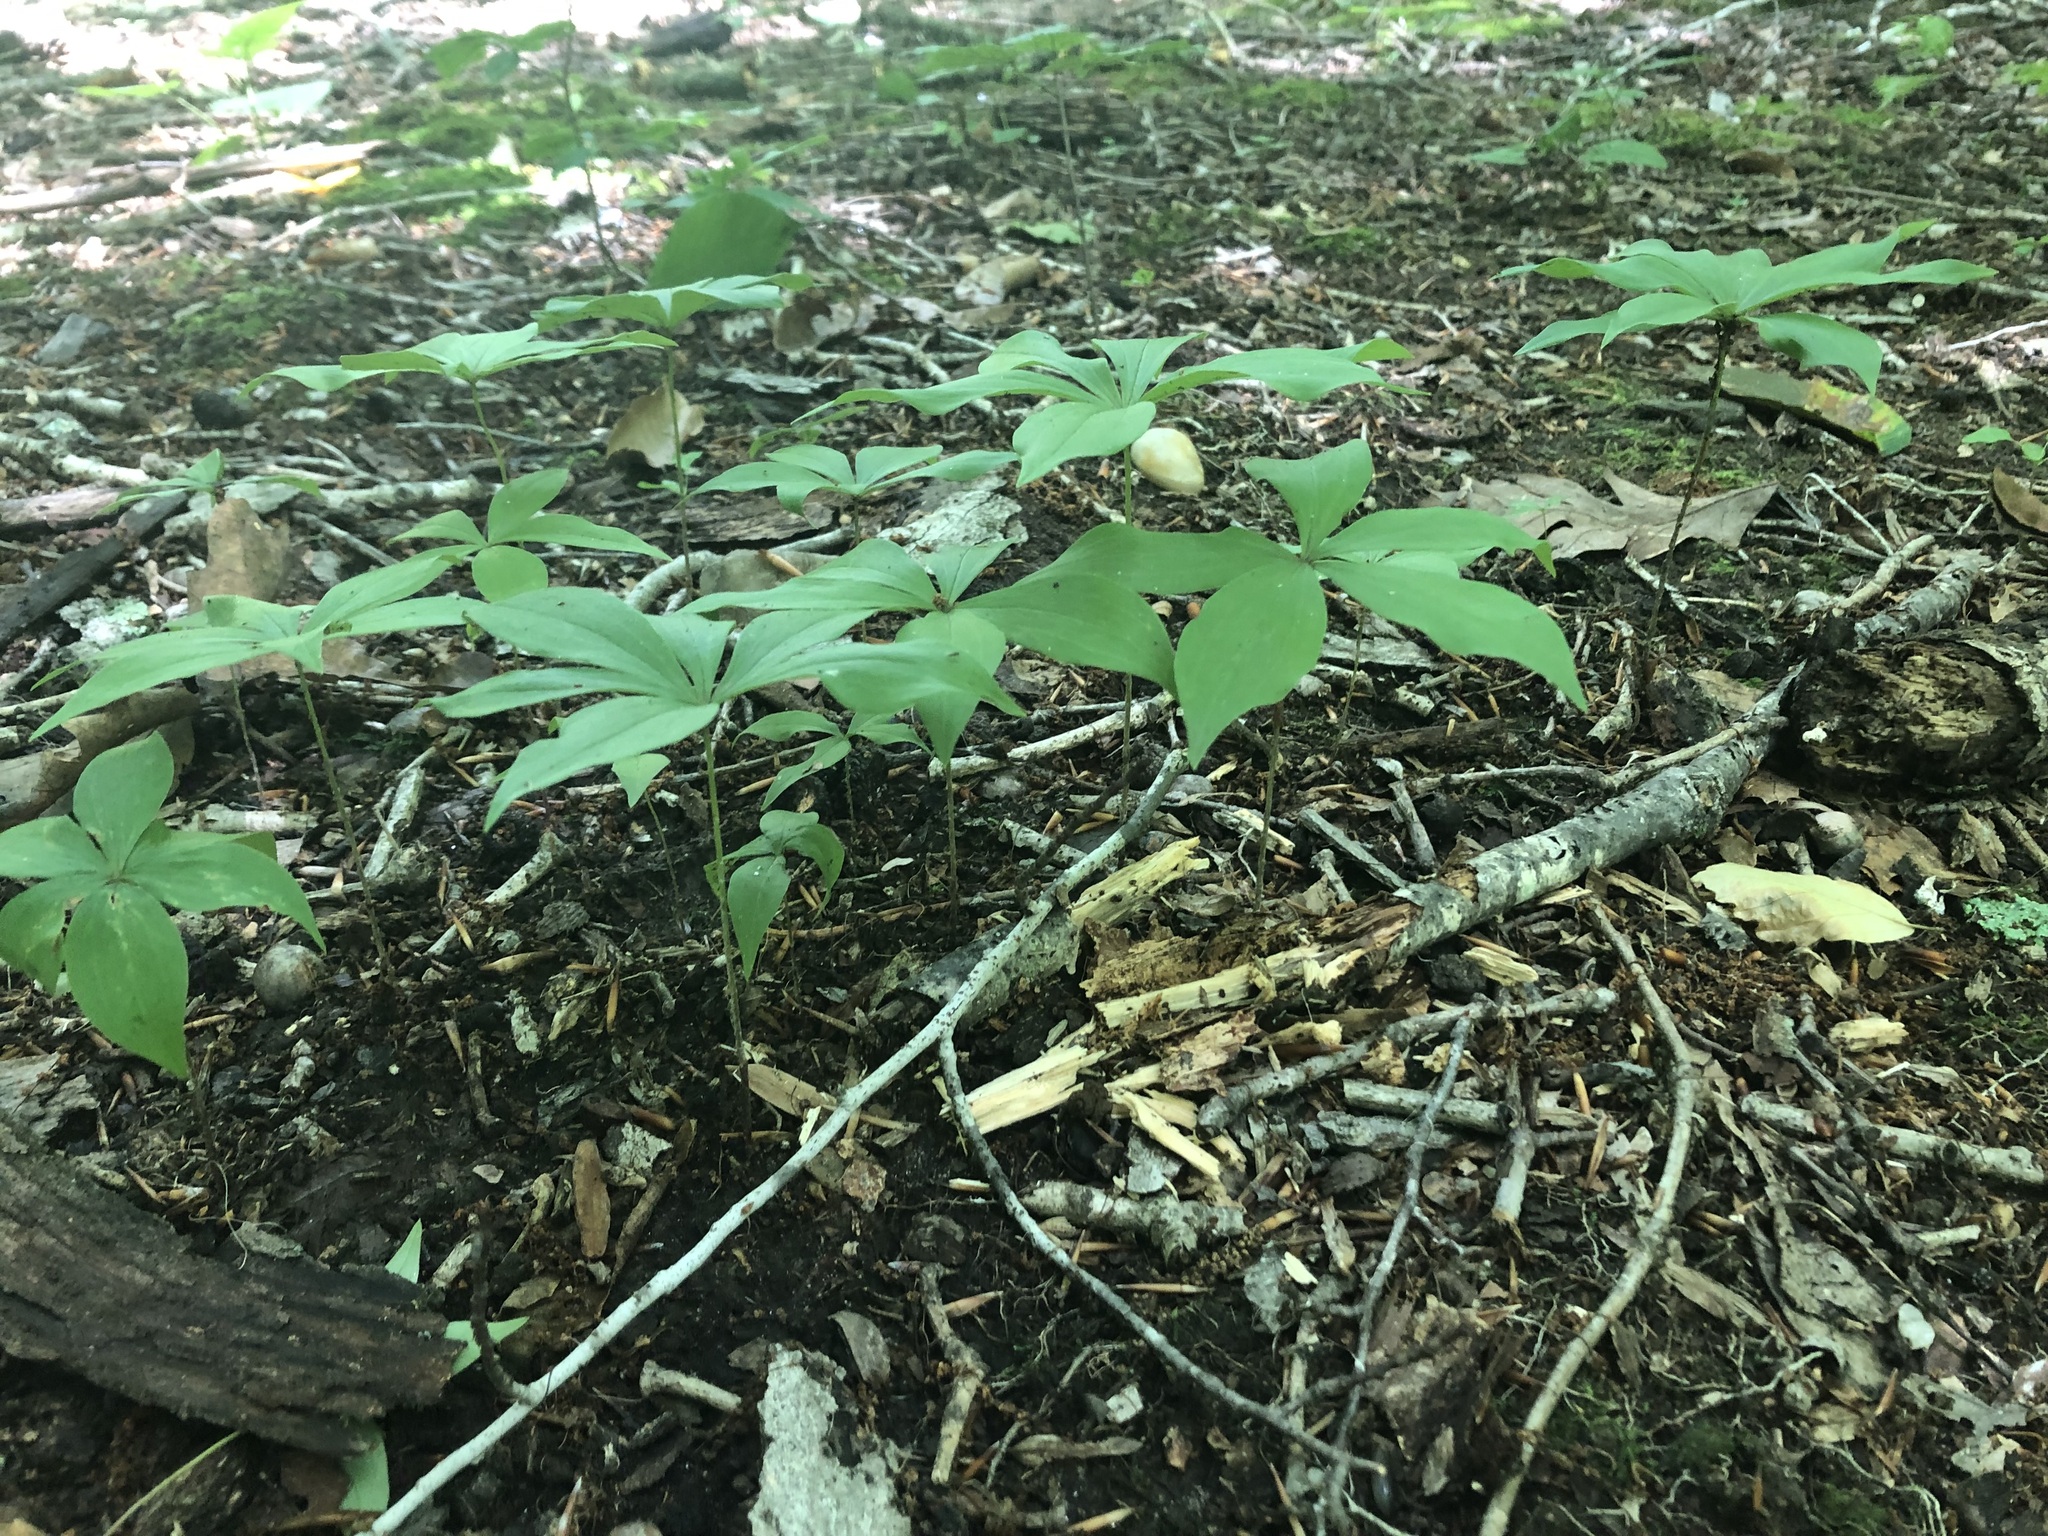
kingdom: Plantae
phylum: Tracheophyta
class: Liliopsida
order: Liliales
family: Liliaceae
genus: Medeola
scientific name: Medeola virginiana
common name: Indian cucumber-root
